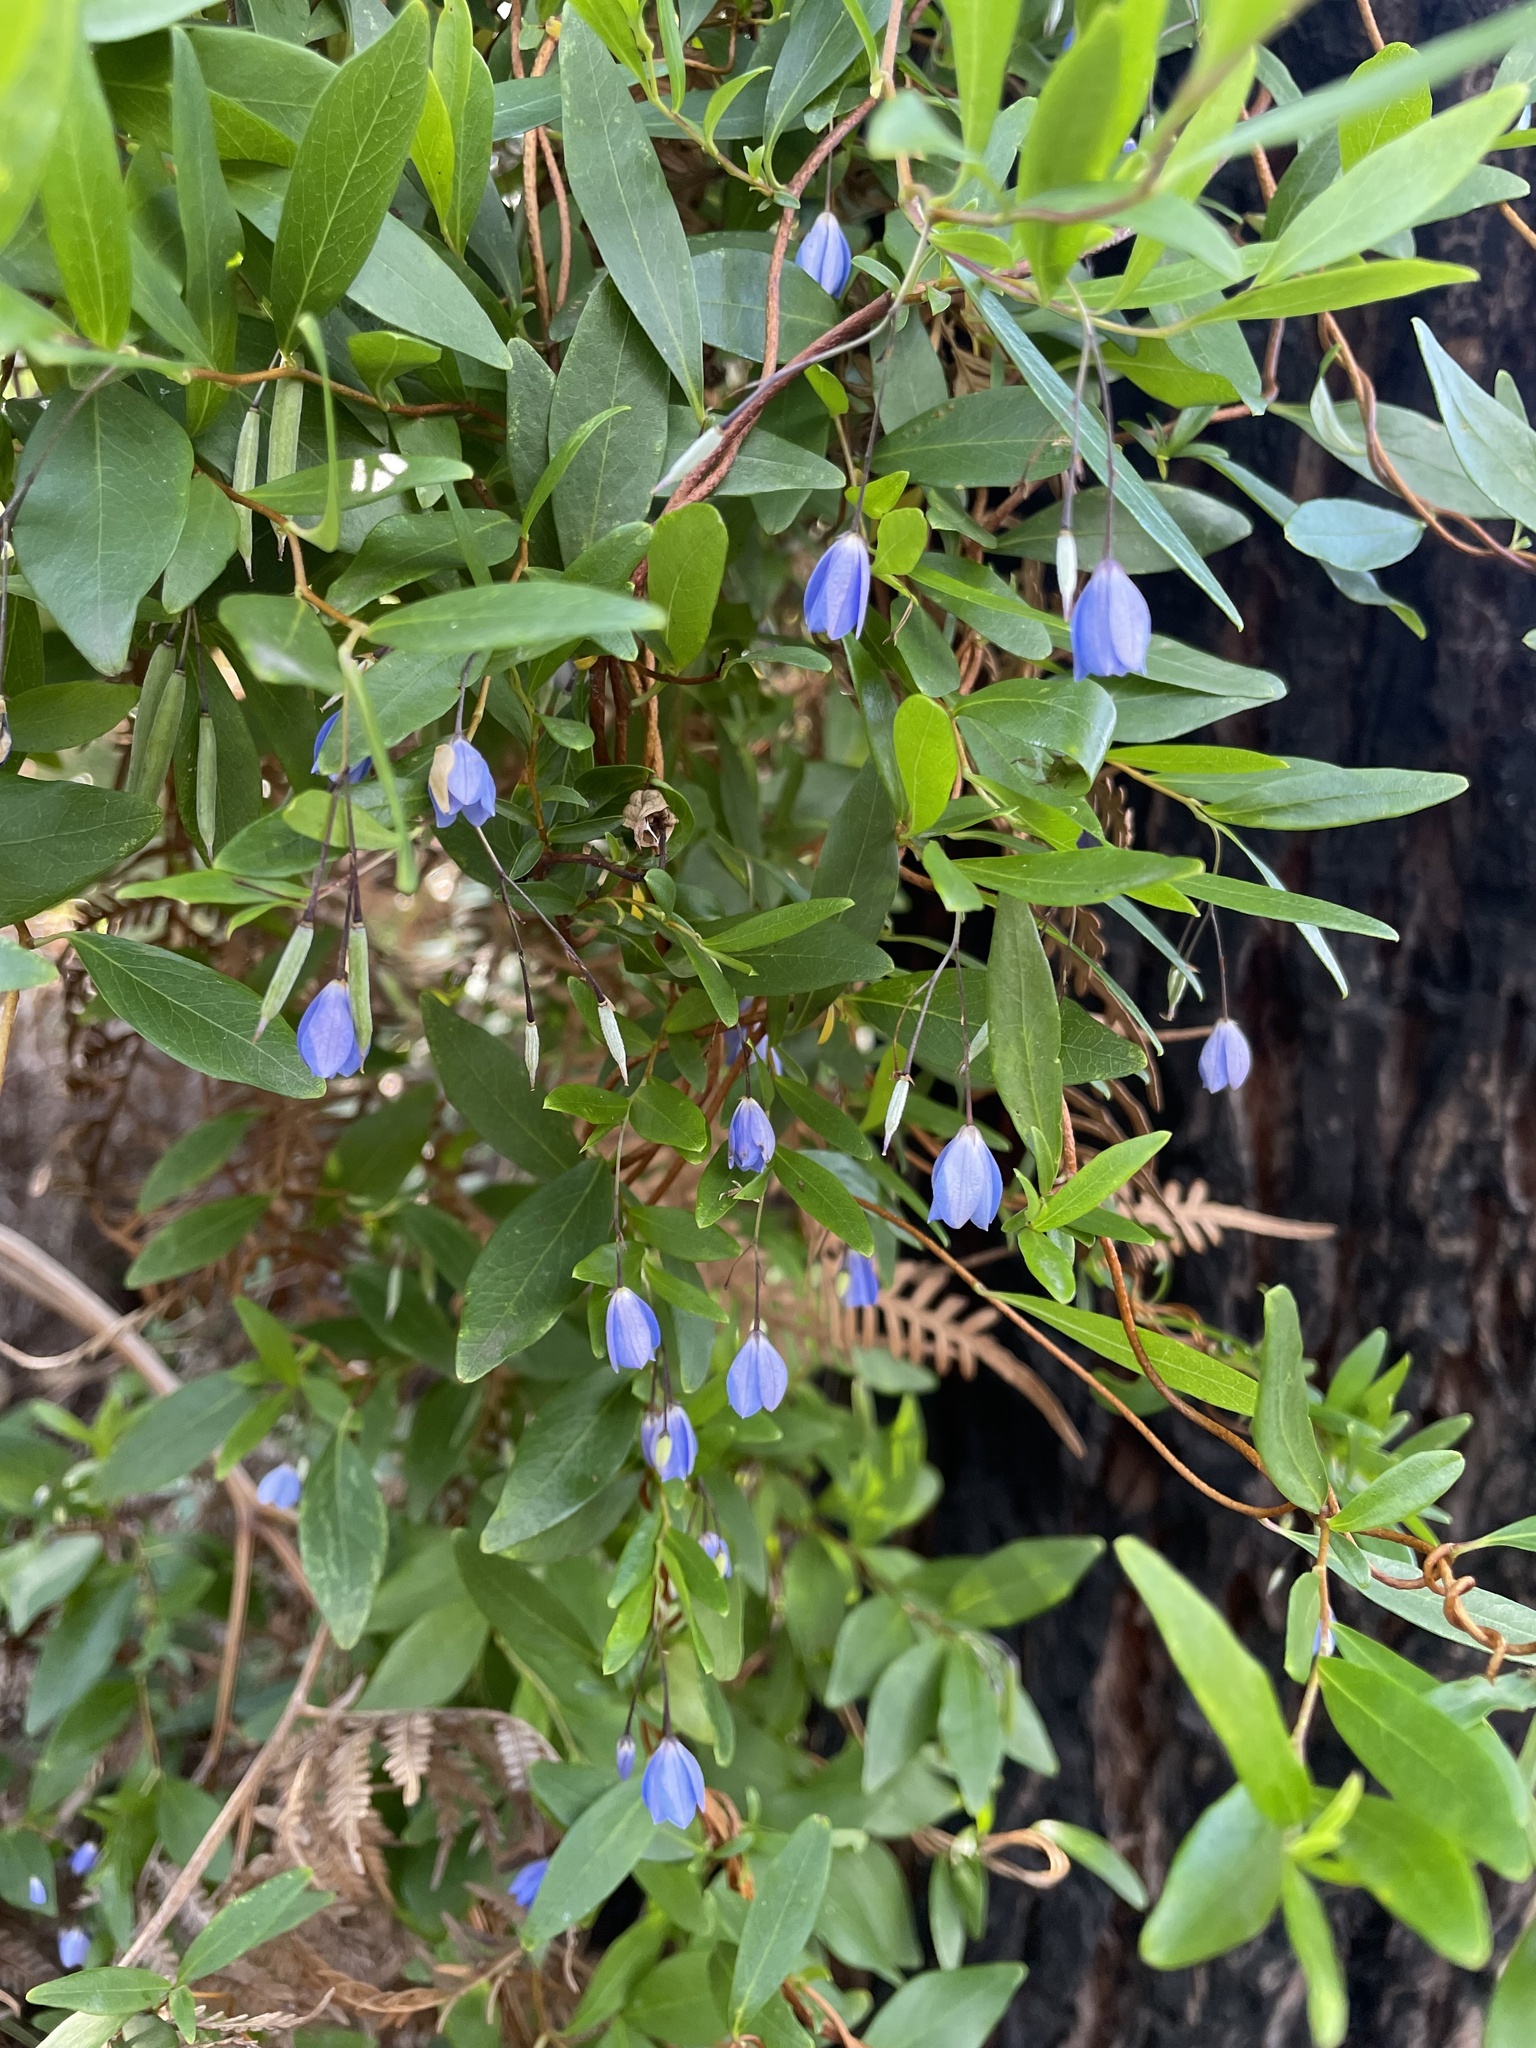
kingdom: Plantae
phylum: Tracheophyta
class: Magnoliopsida
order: Apiales
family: Pittosporaceae
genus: Billardiera
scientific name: Billardiera fusiformis
